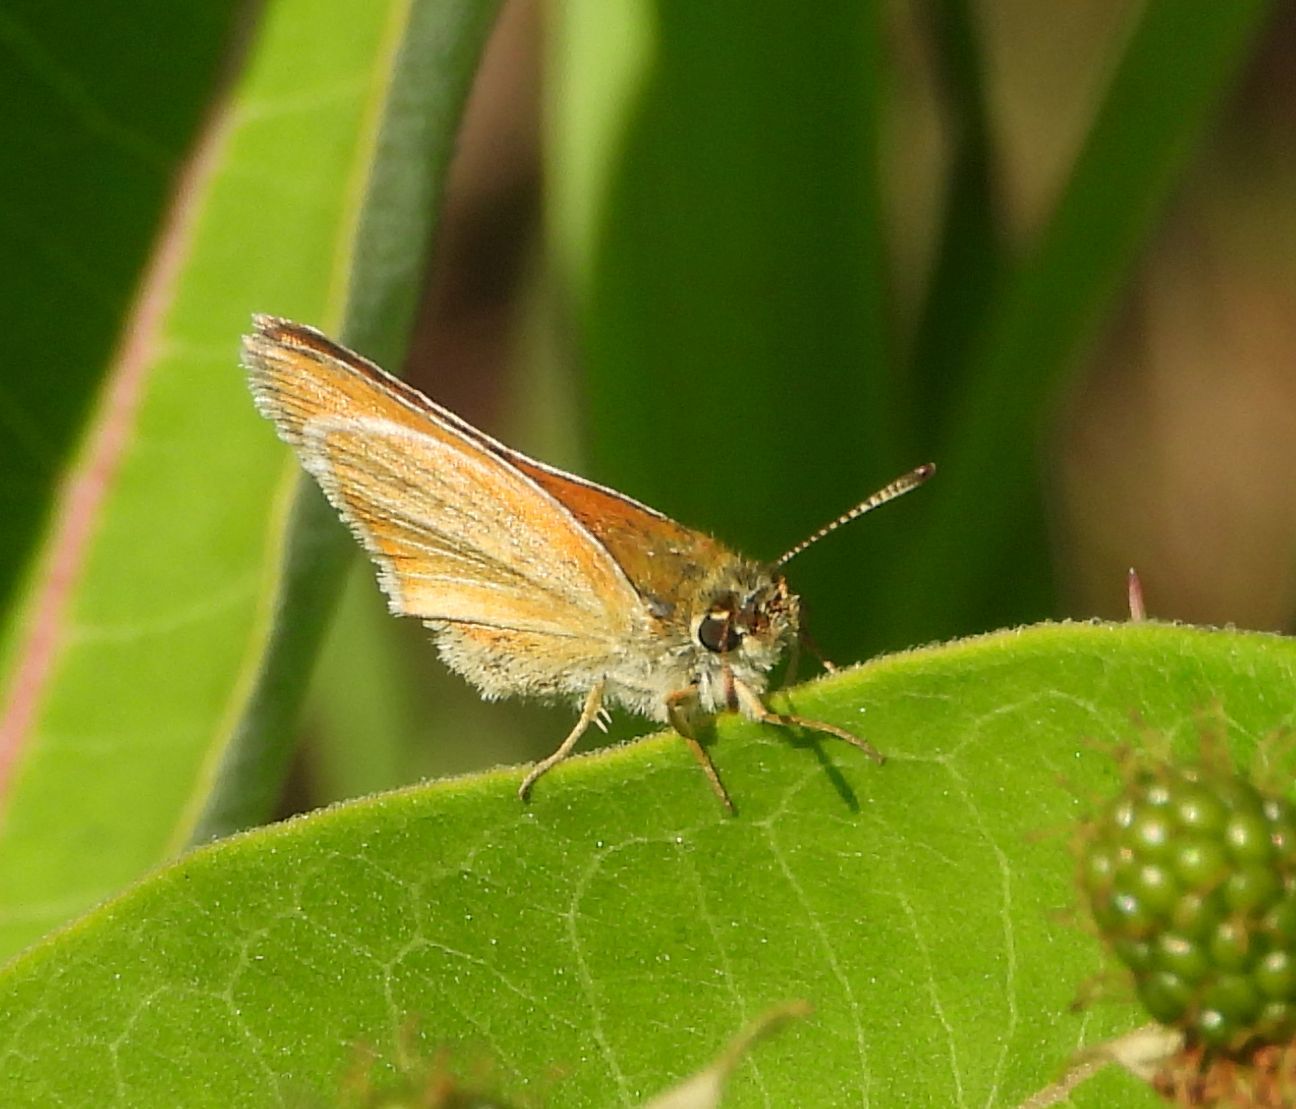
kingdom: Animalia
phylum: Arthropoda
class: Insecta
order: Lepidoptera
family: Hesperiidae
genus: Thymelicus
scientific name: Thymelicus lineola
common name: Essex skipper
